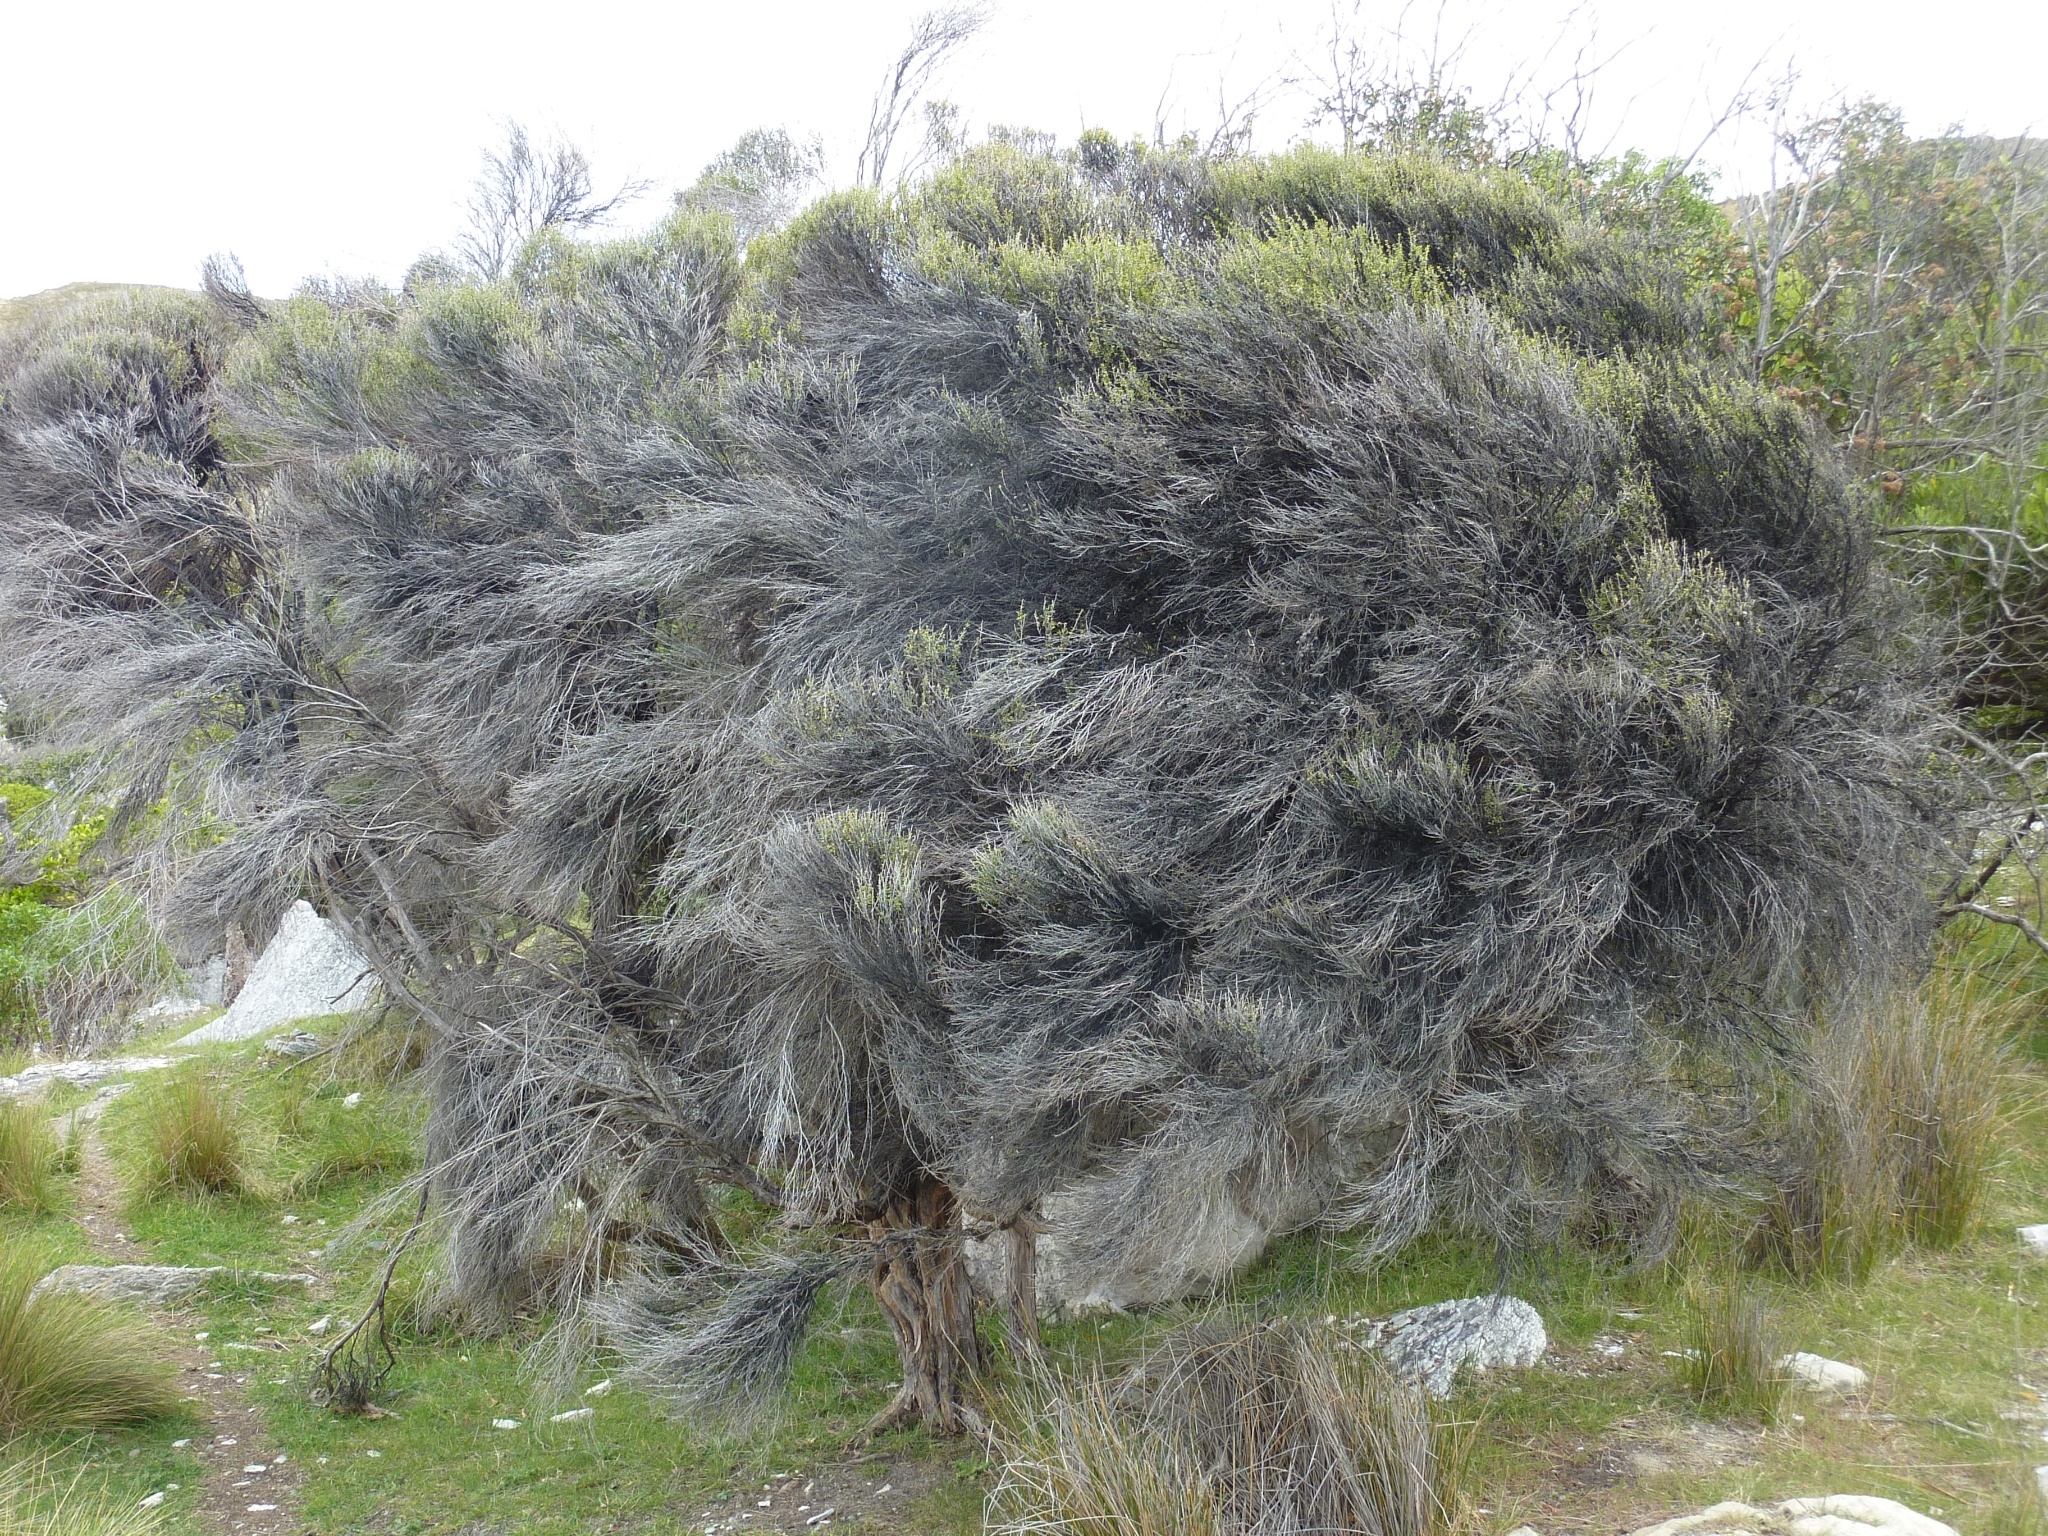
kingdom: Plantae
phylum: Tracheophyta
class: Magnoliopsida
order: Myrtales
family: Myrtaceae
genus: Leptospermum
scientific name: Leptospermum scoparium
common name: Broom tea-tree
